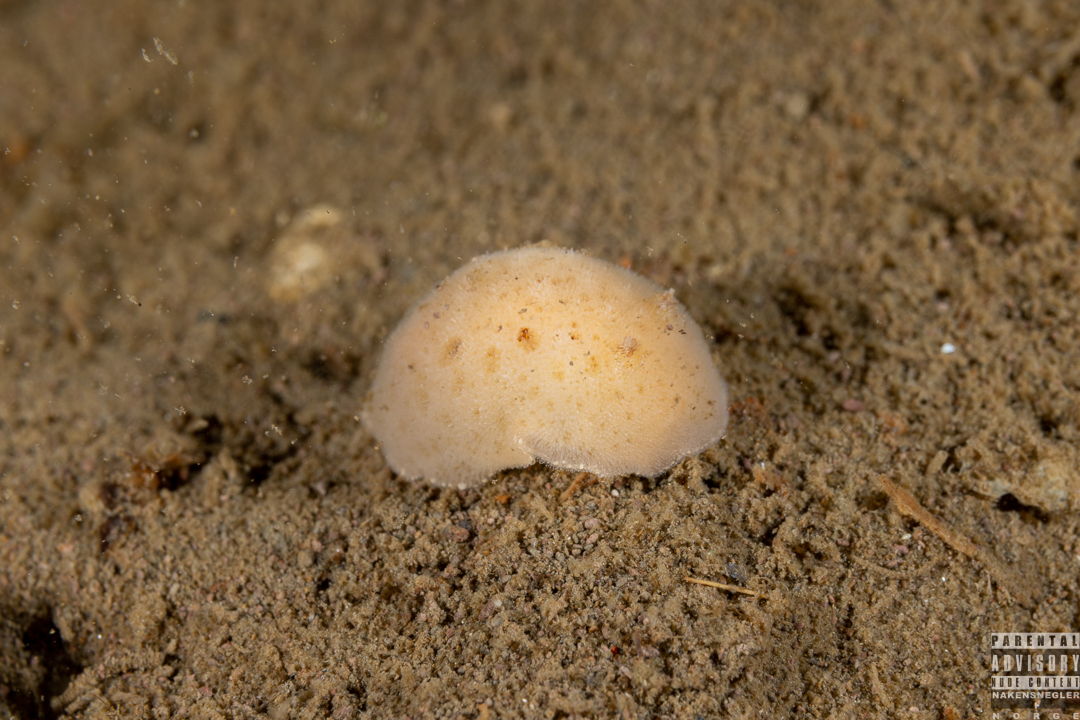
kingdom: Animalia
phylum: Mollusca
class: Gastropoda
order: Nudibranchia
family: Discodorididae
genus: Jorunna
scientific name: Jorunna tomentosa
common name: Grey sea slug
